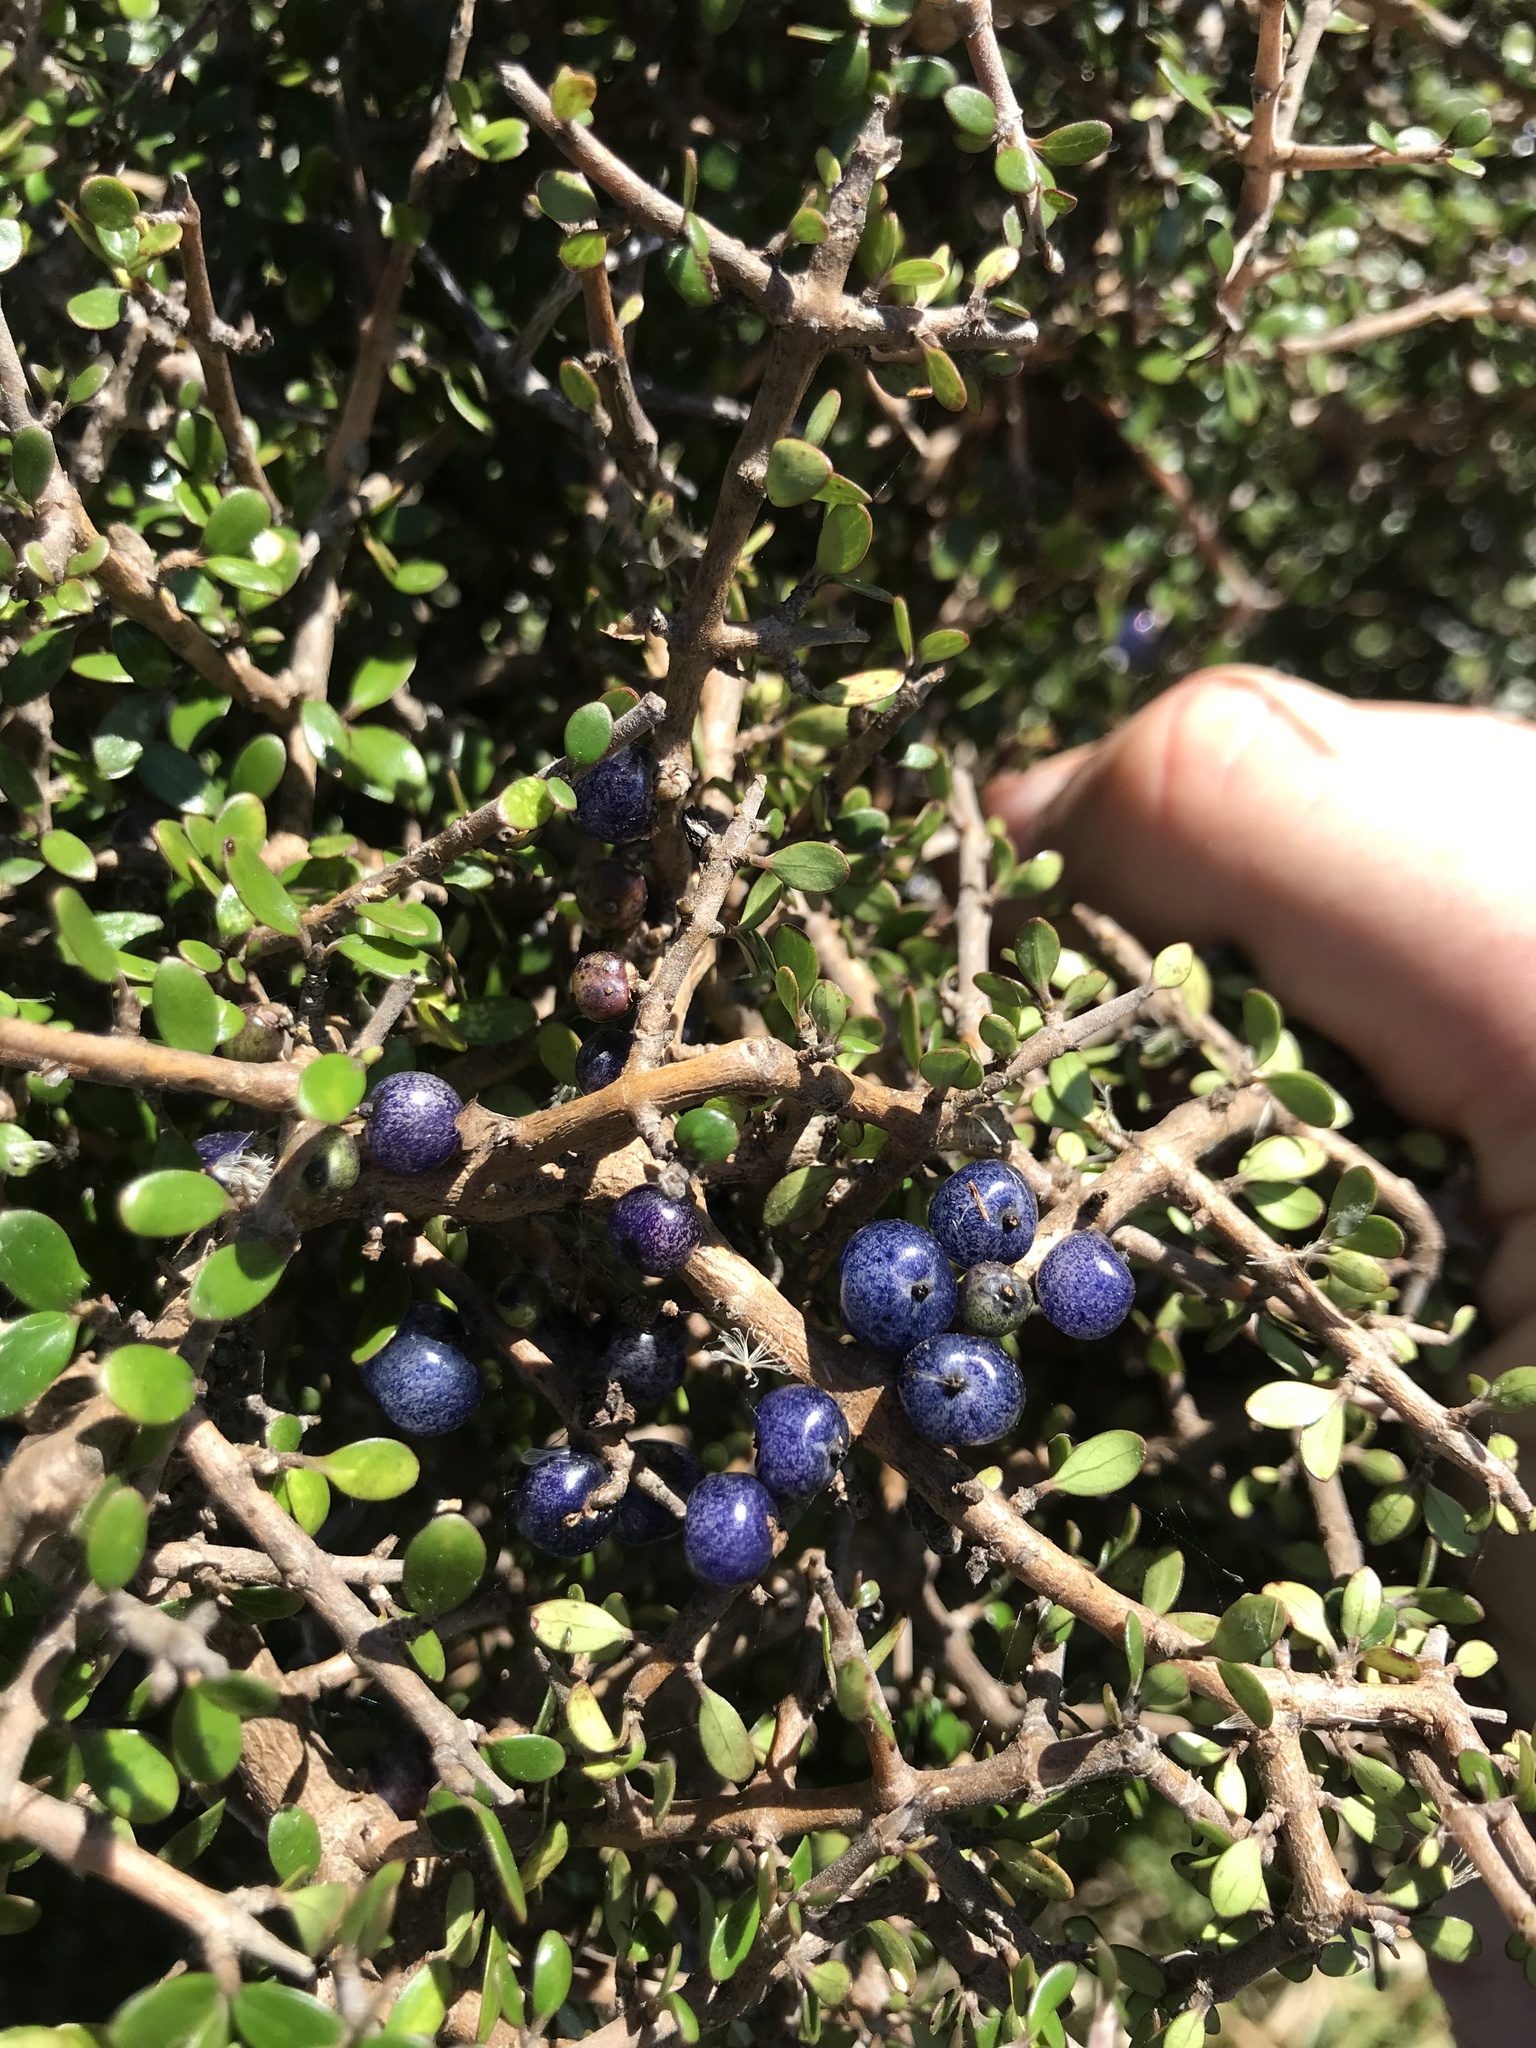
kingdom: Plantae
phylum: Tracheophyta
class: Magnoliopsida
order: Gentianales
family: Rubiaceae
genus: Coprosma
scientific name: Coprosma propinqua
